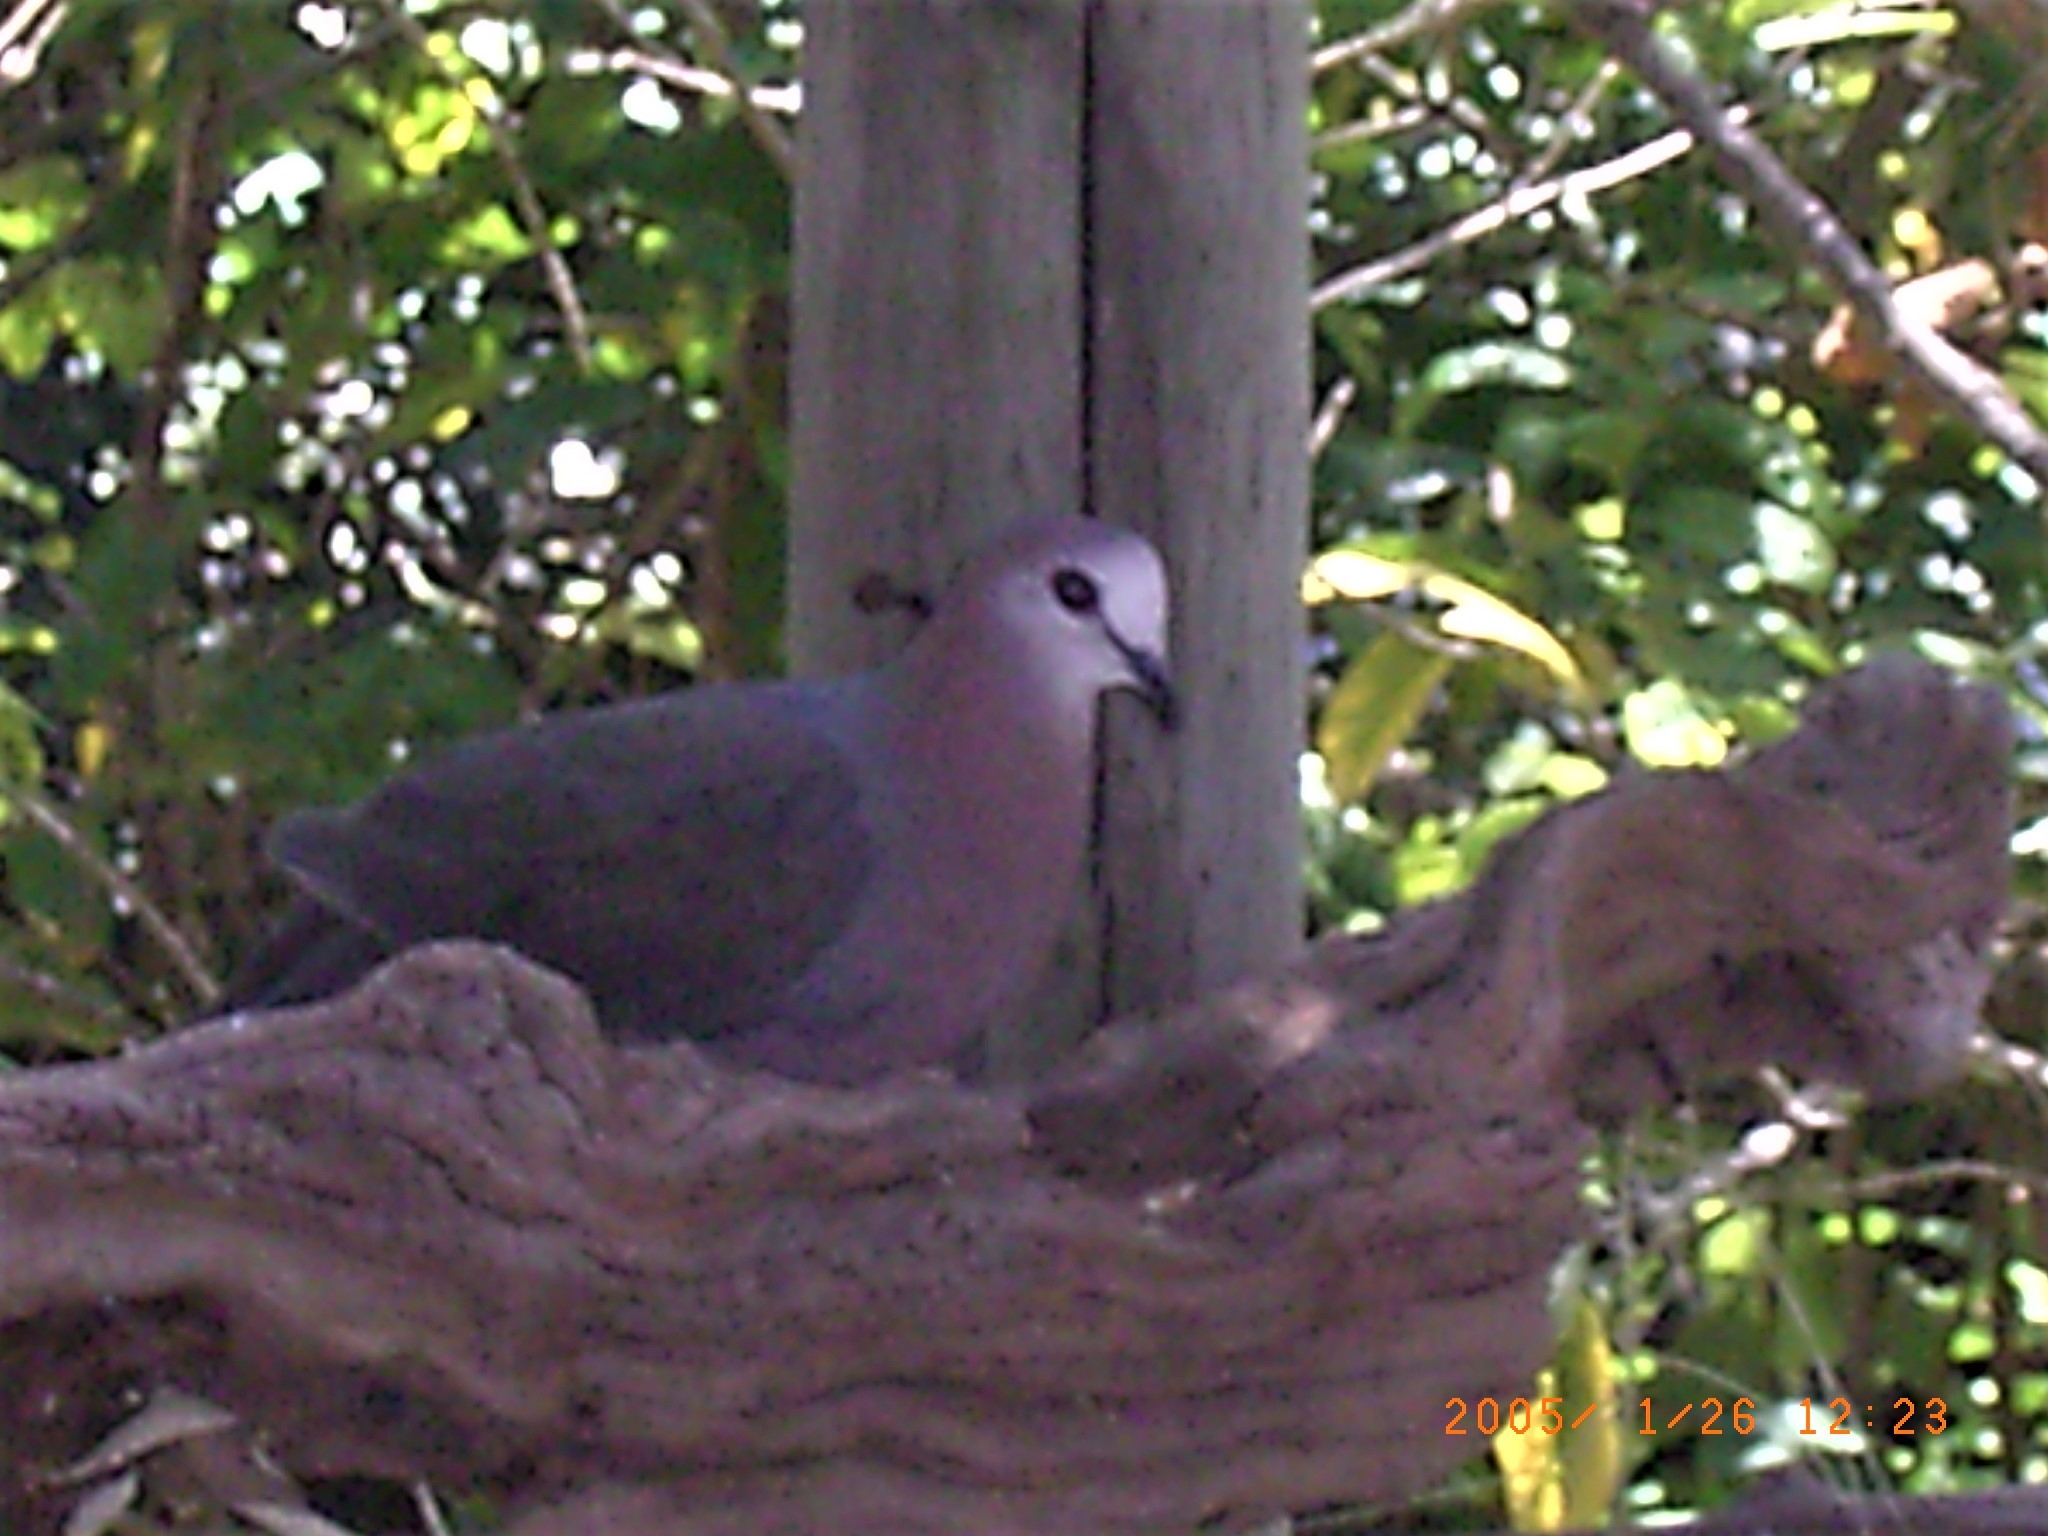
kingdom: Animalia
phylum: Chordata
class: Aves
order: Columbiformes
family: Columbidae
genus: Columba
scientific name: Columba larvata
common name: Lemon dove
